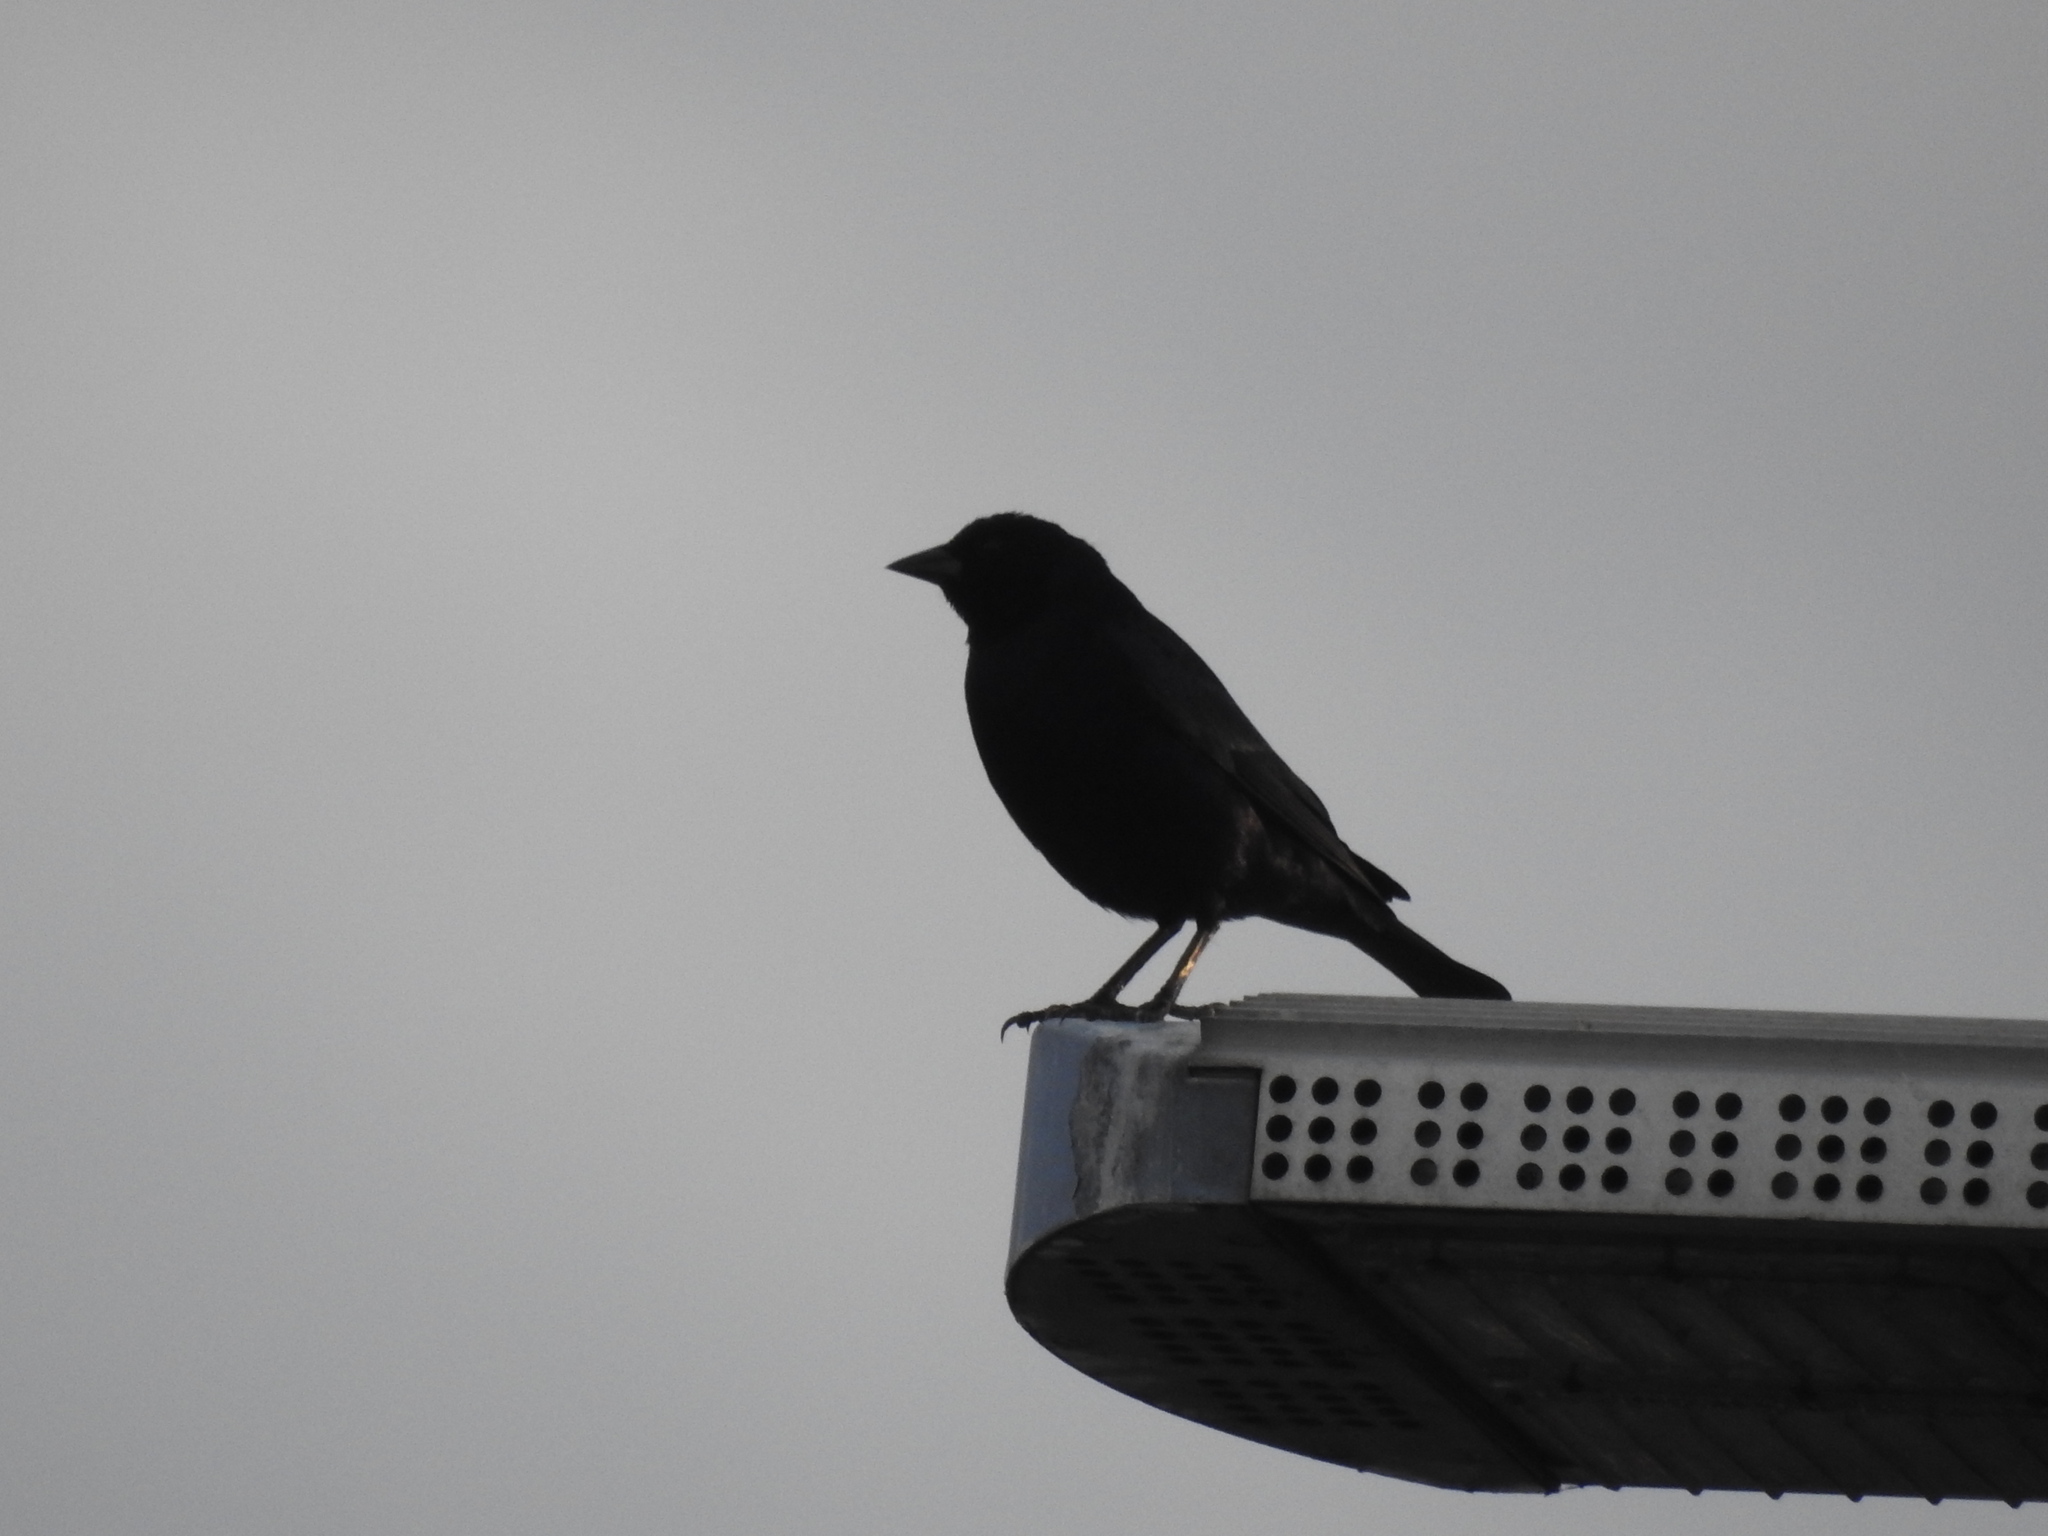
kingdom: Animalia
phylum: Chordata
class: Aves
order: Passeriformes
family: Icteridae
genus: Molothrus
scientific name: Molothrus bonariensis
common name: Shiny cowbird
